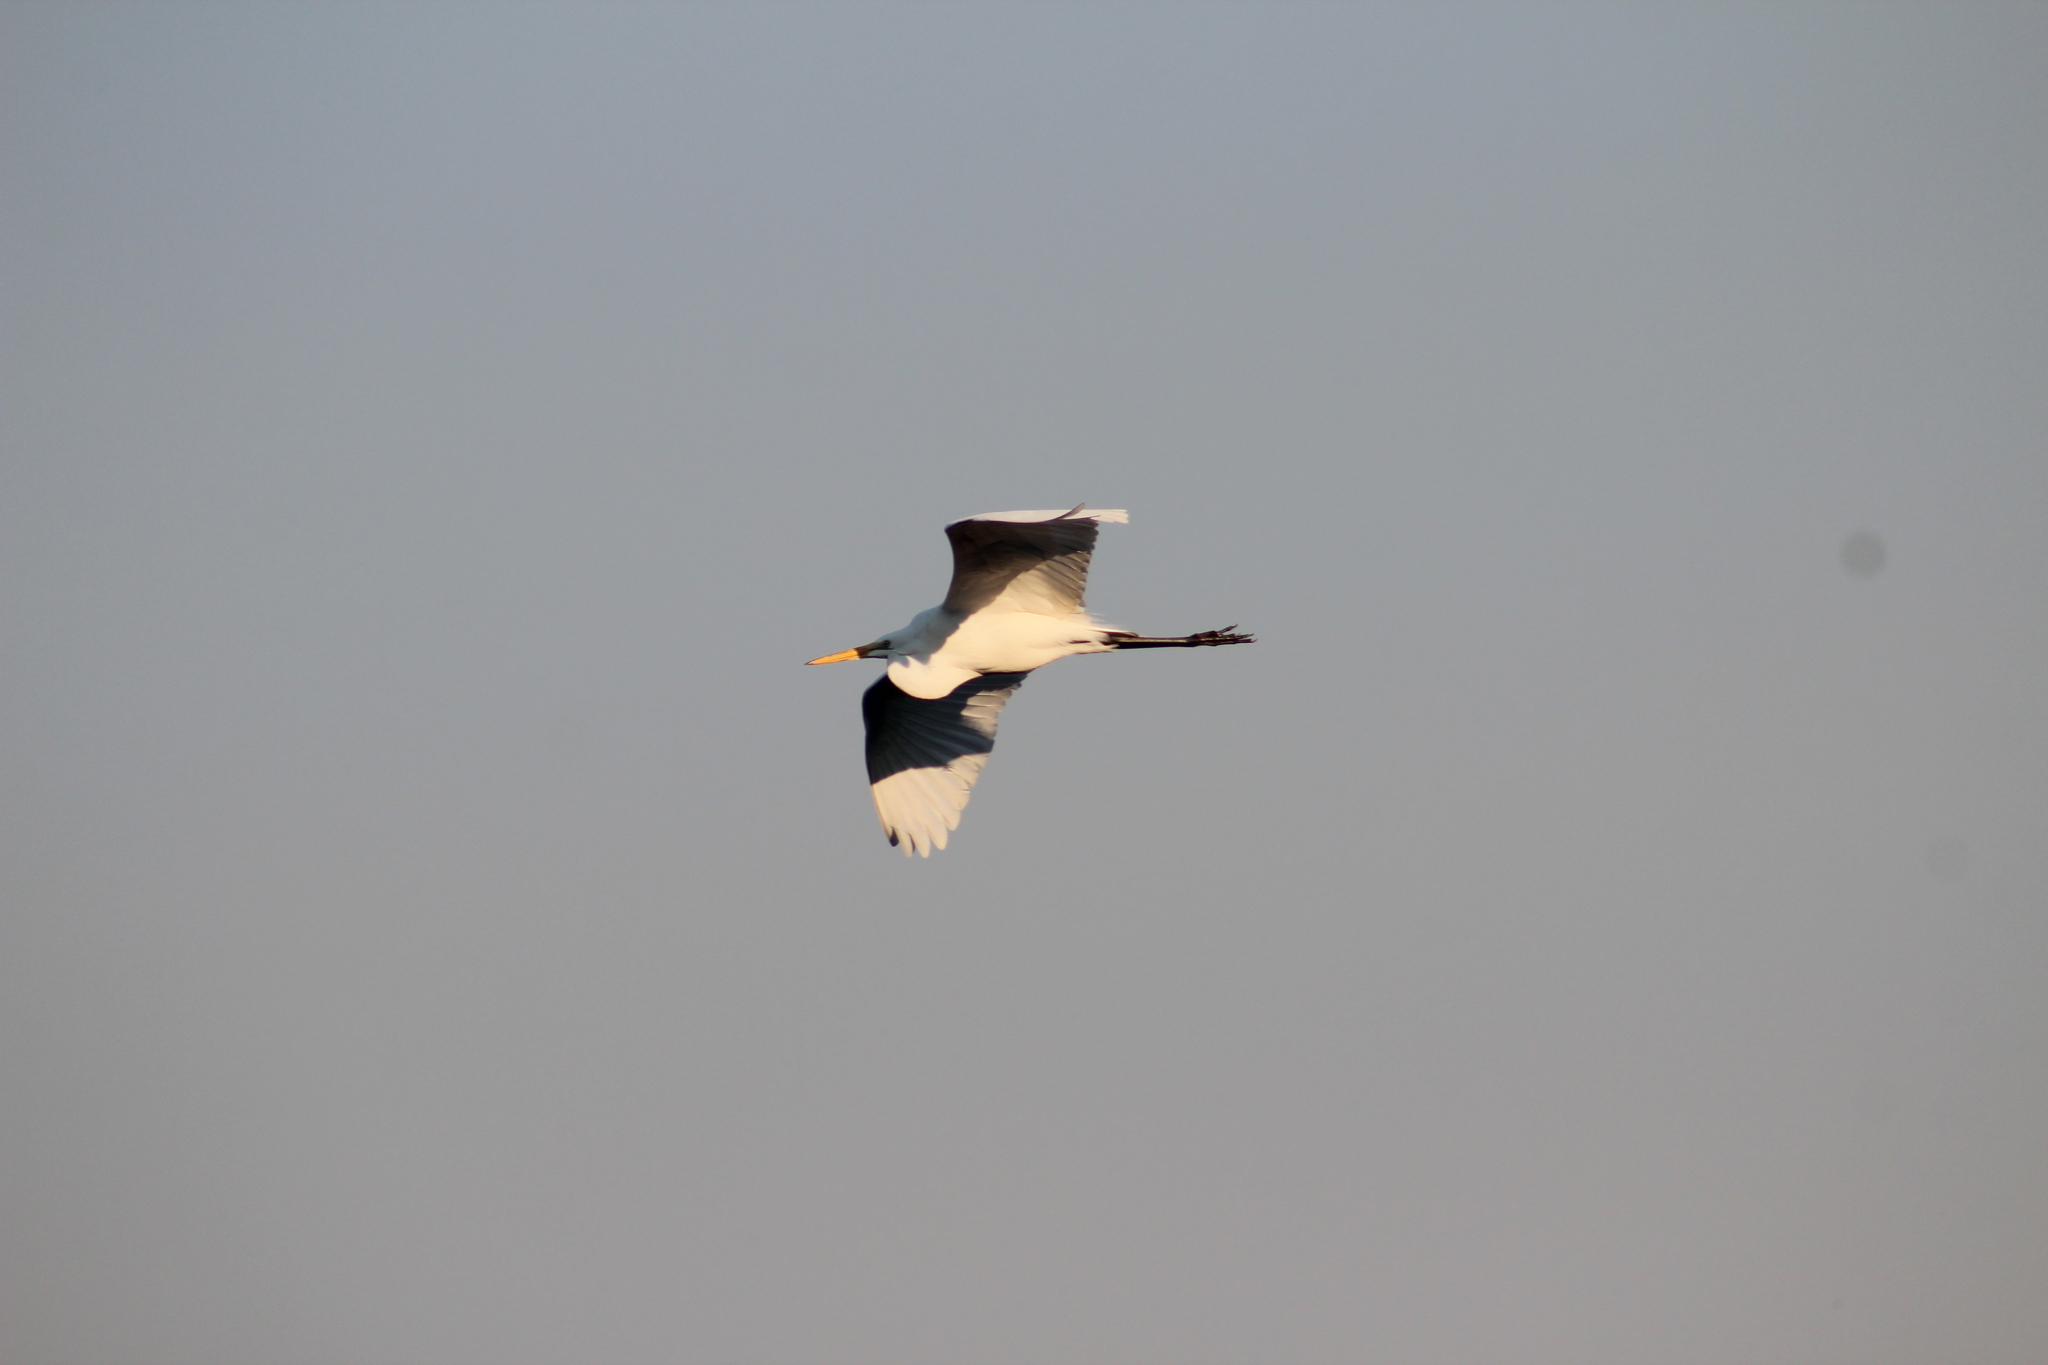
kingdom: Animalia
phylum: Chordata
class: Aves
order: Pelecaniformes
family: Ardeidae
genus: Ardea
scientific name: Ardea alba
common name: Great egret
